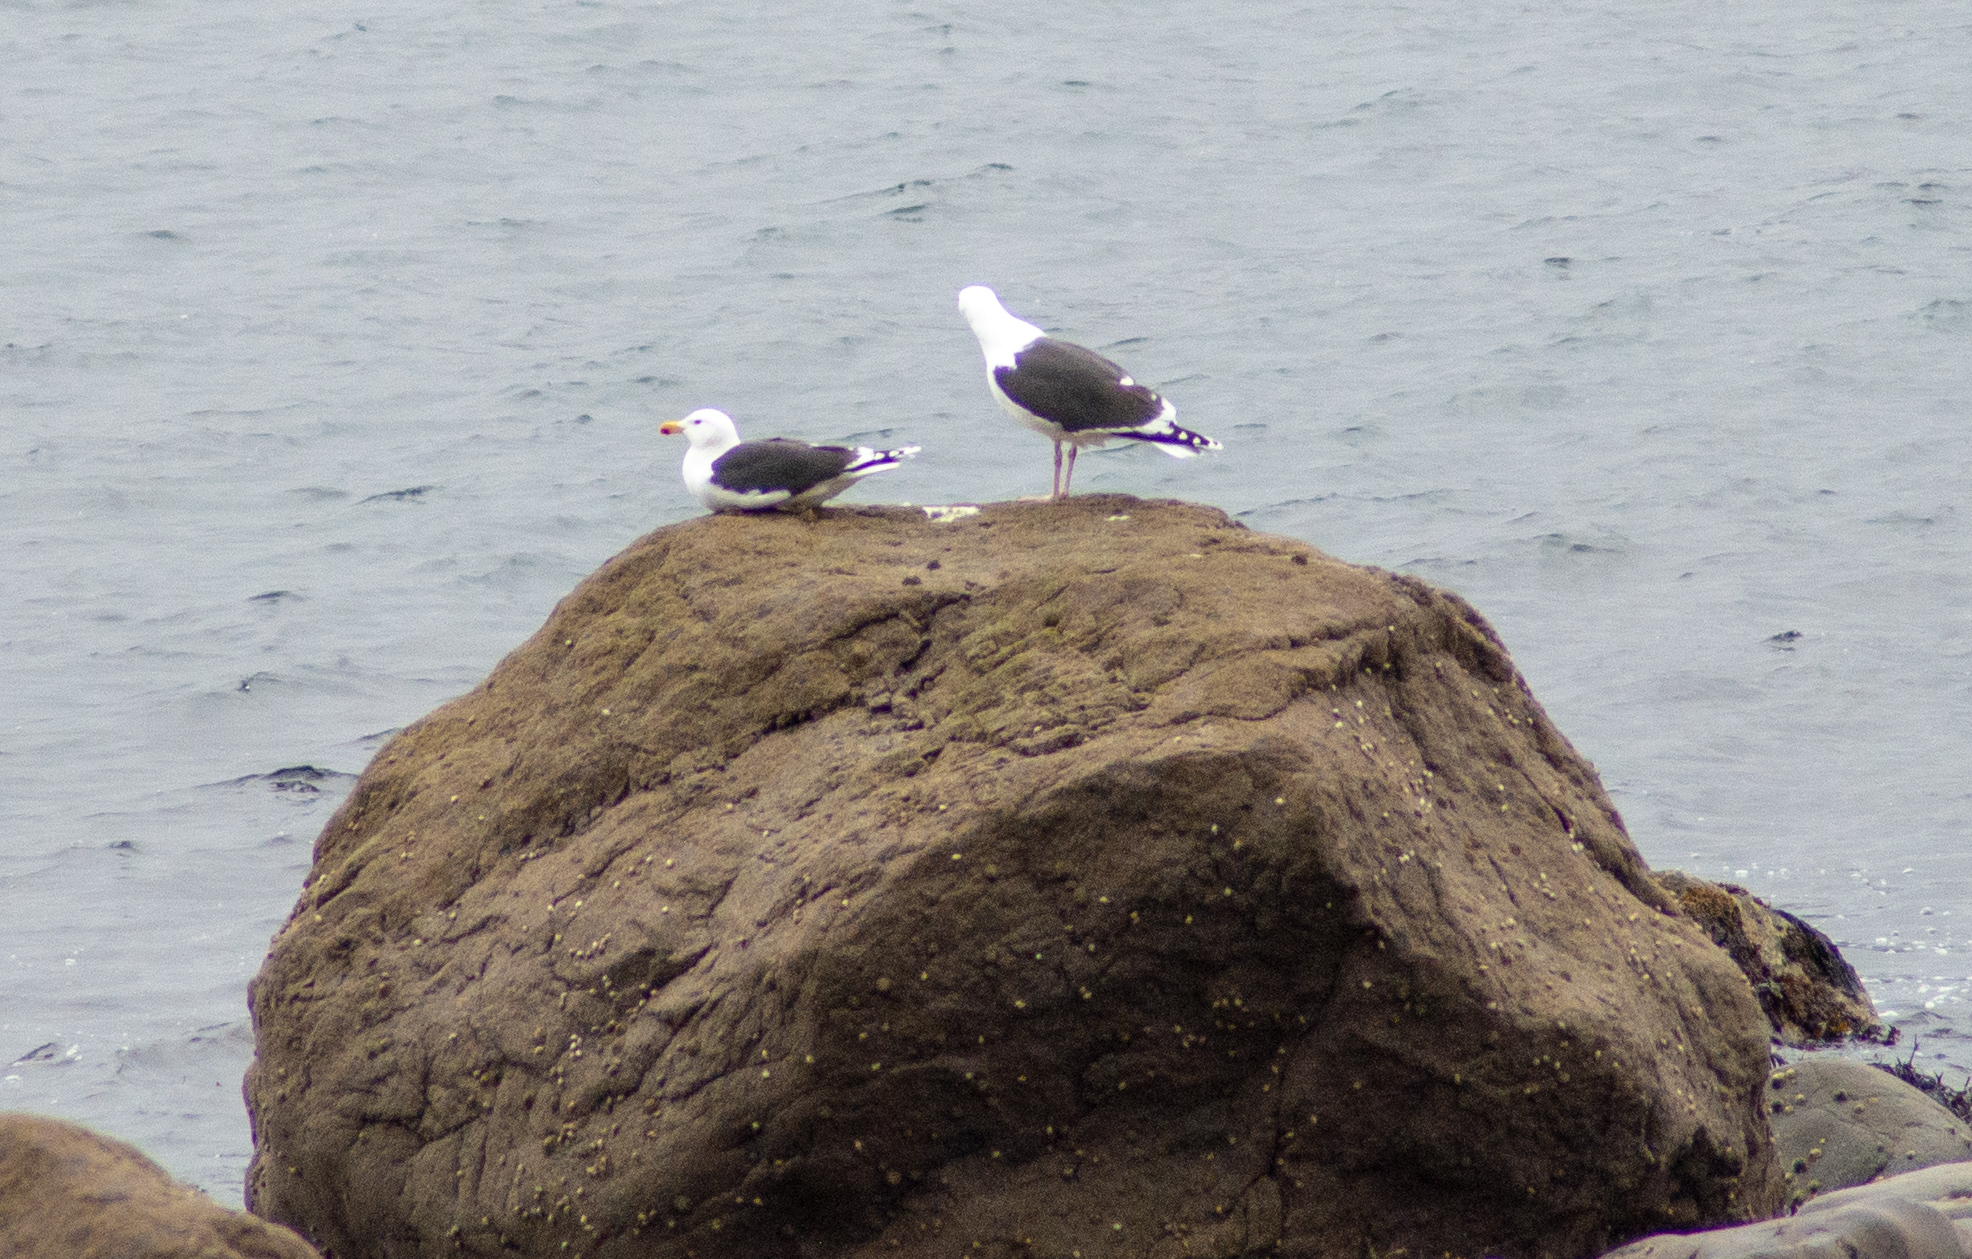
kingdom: Animalia
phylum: Chordata
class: Aves
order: Charadriiformes
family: Laridae
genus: Larus
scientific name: Larus marinus
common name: Great black-backed gull
